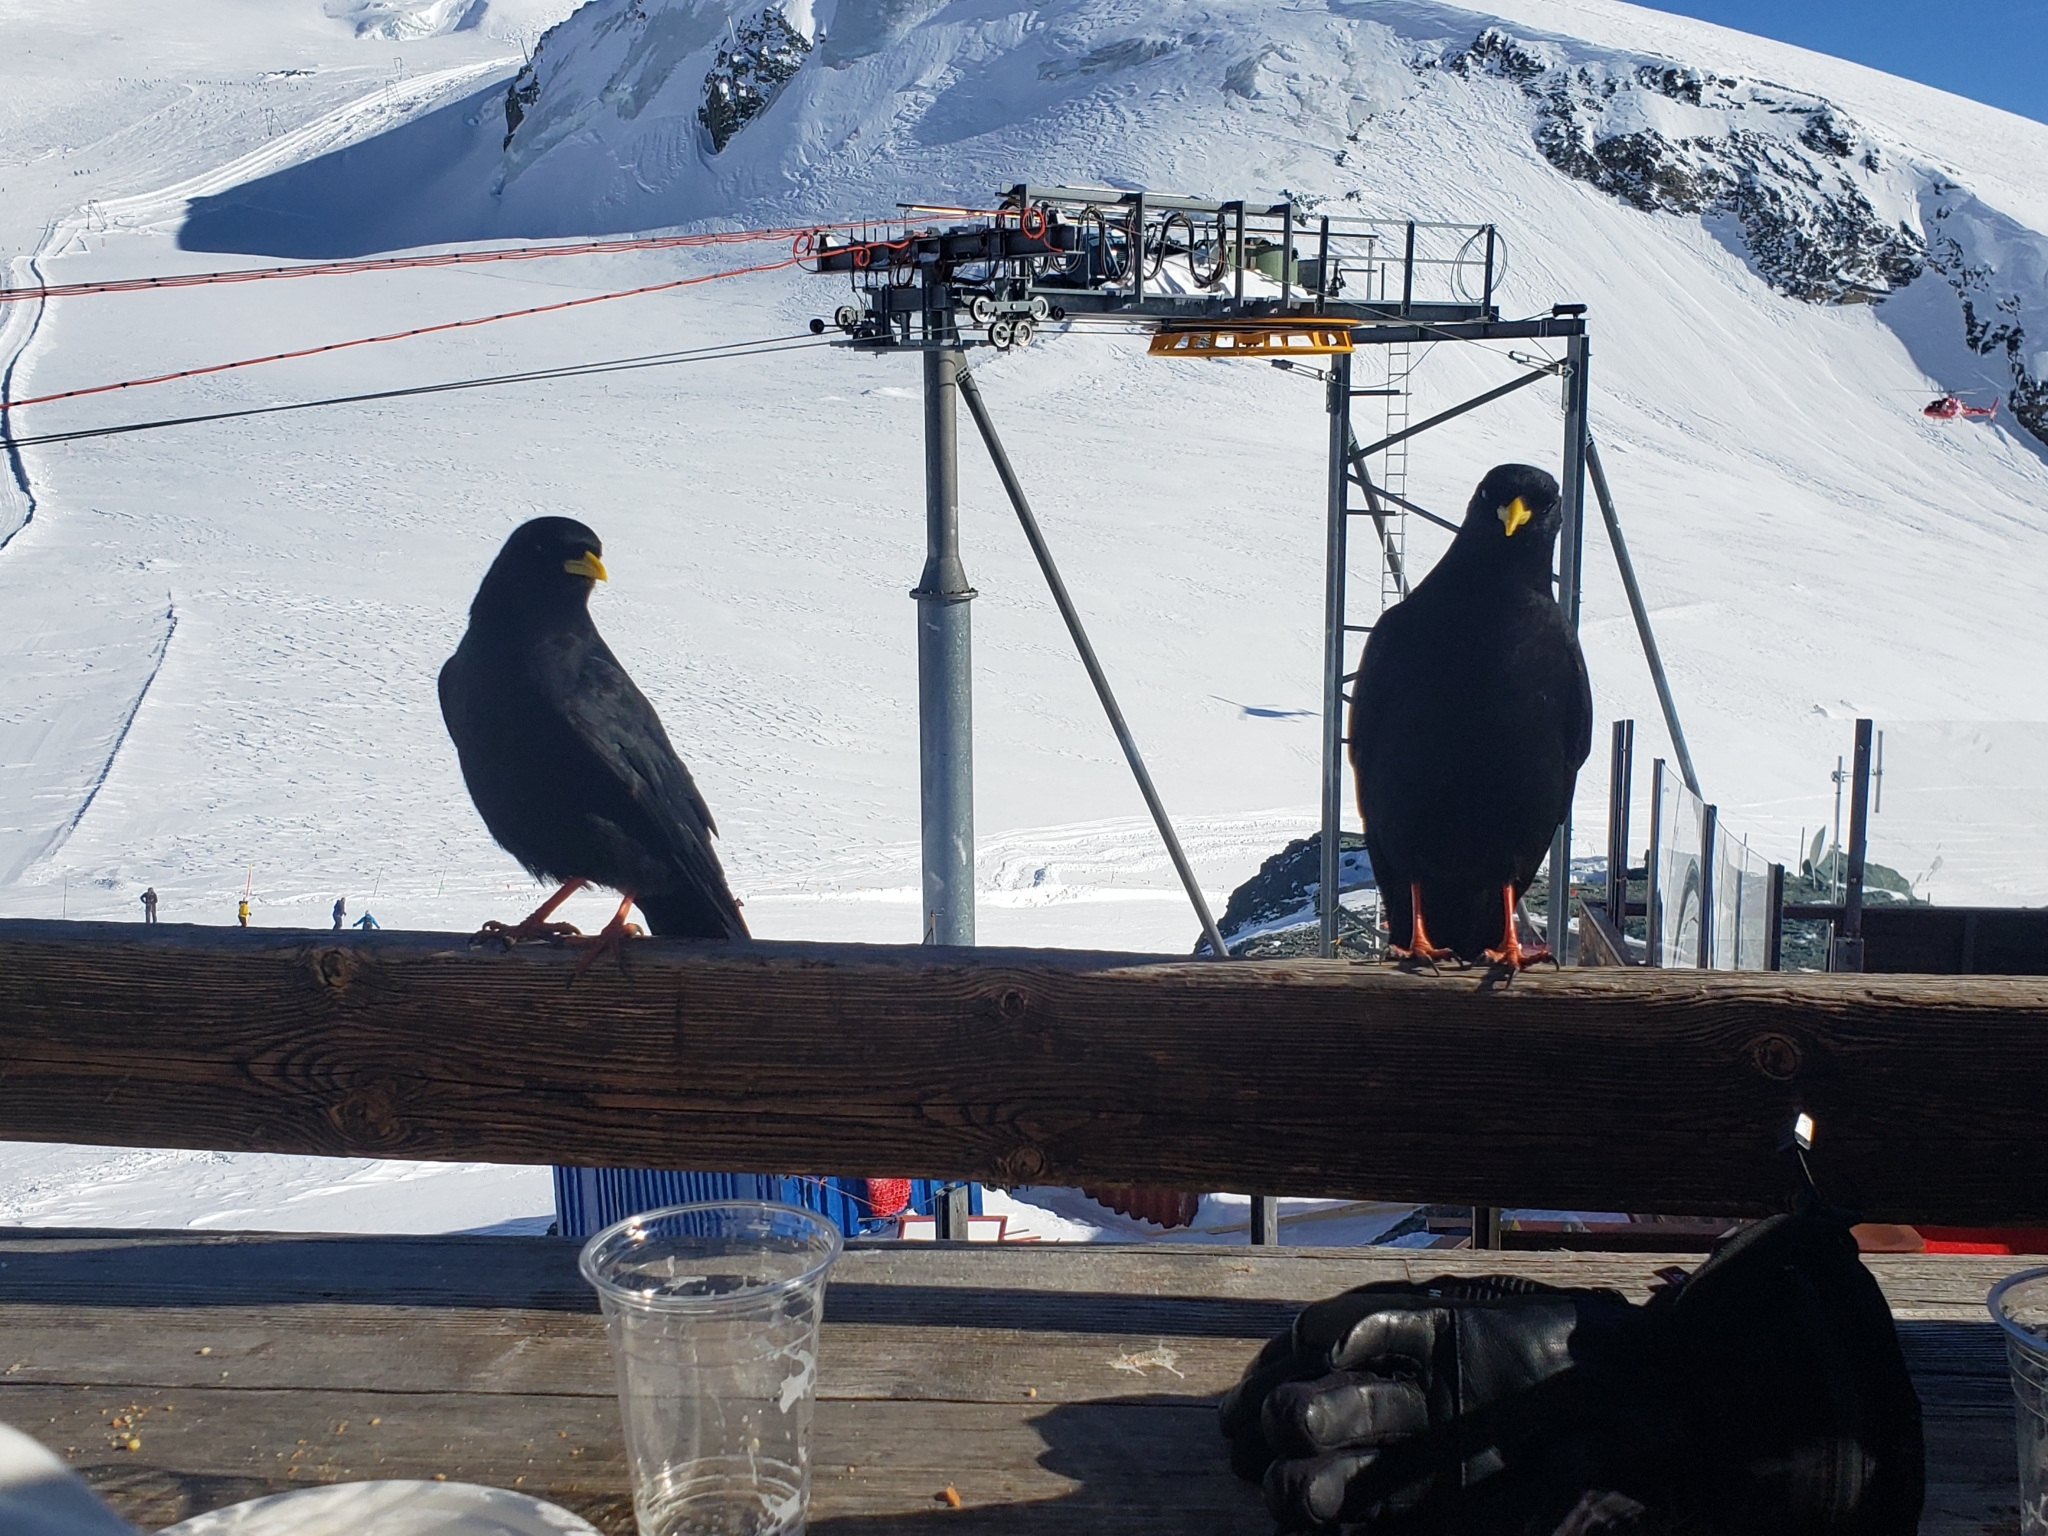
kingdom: Animalia
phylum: Chordata
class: Aves
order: Passeriformes
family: Corvidae
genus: Pyrrhocorax
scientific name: Pyrrhocorax graculus
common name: Alpine chough
